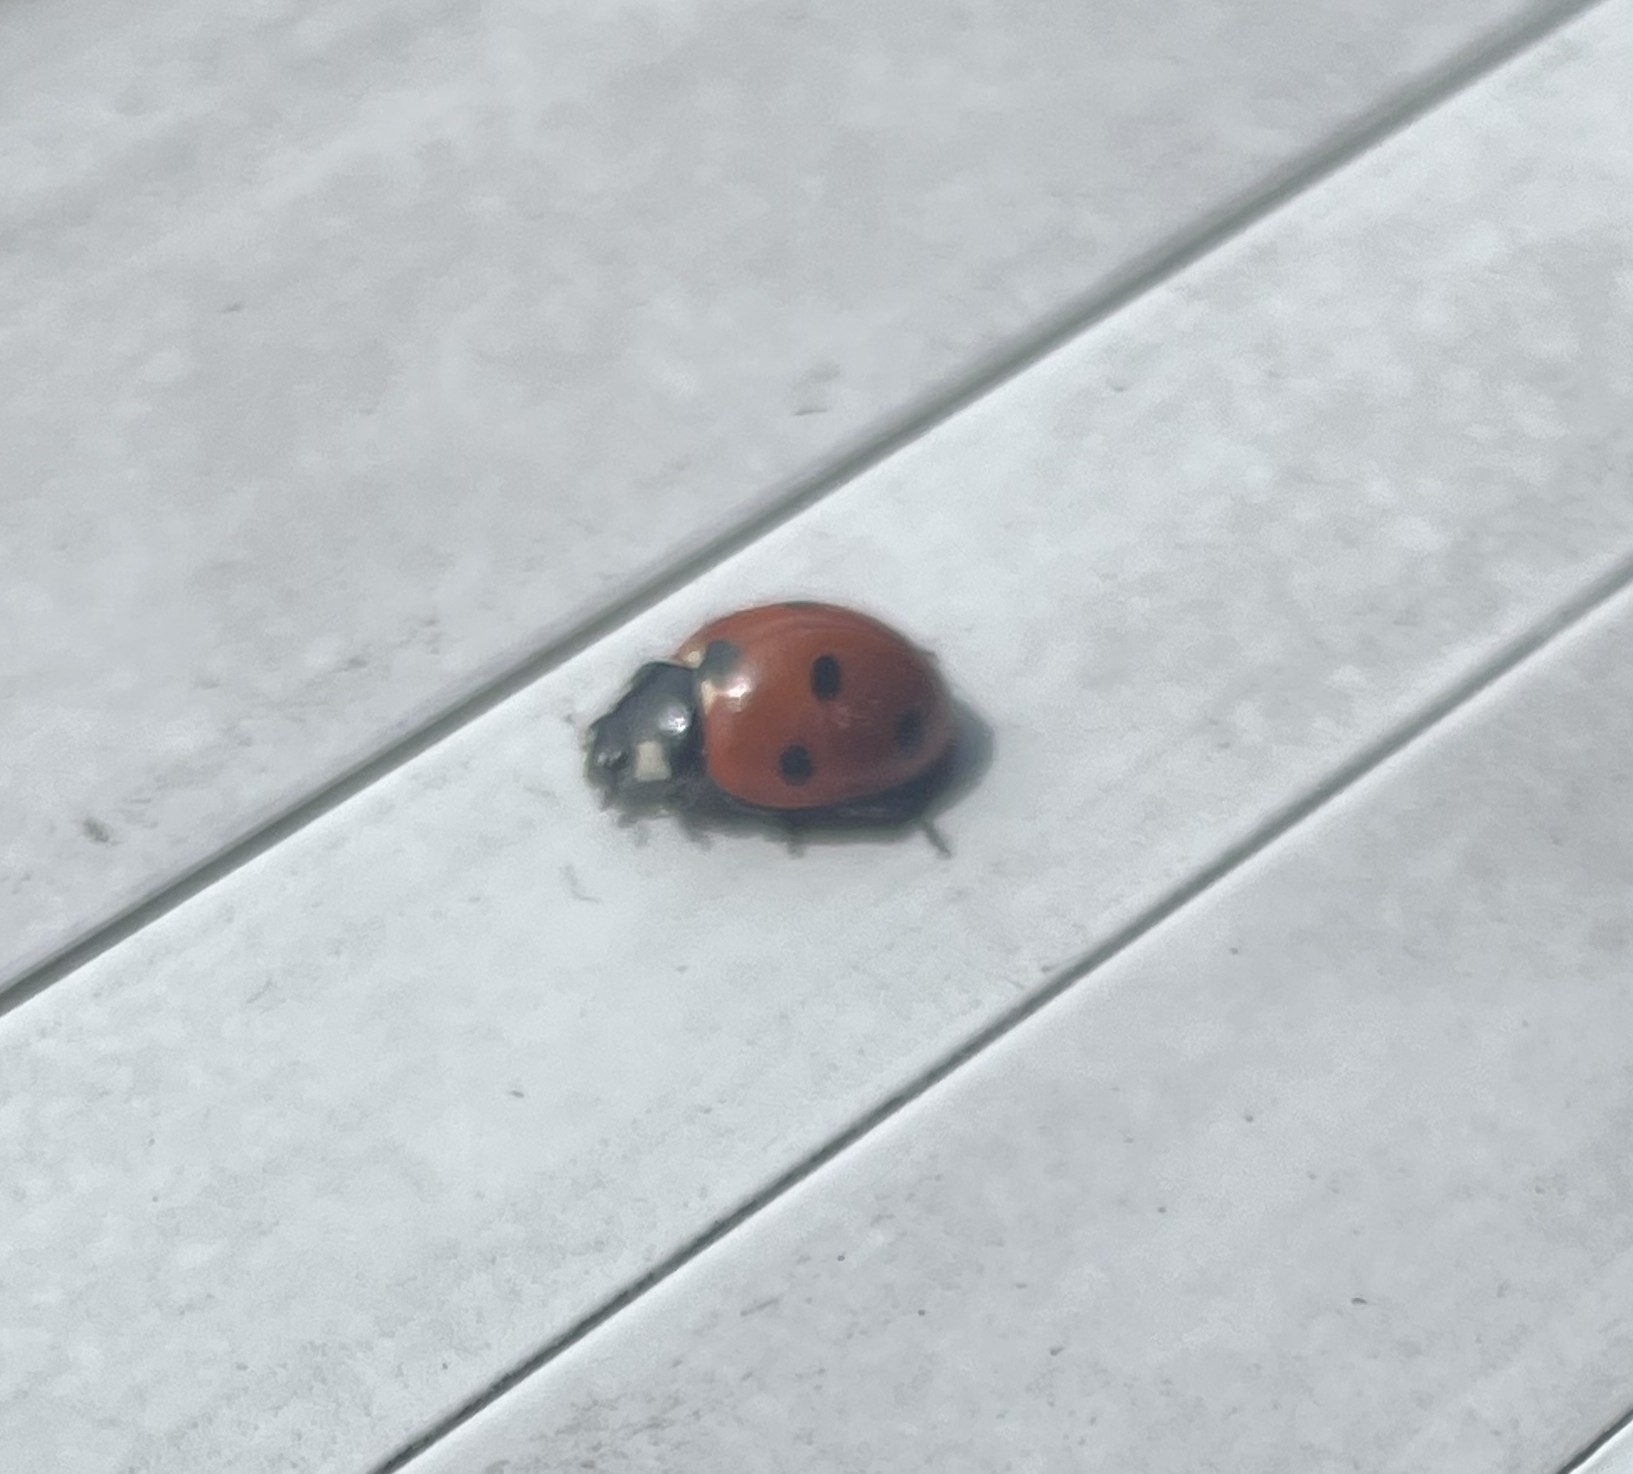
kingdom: Animalia
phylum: Arthropoda
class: Insecta
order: Coleoptera
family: Coccinellidae
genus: Coccinella
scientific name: Coccinella septempunctata
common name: Sevenspotted lady beetle
